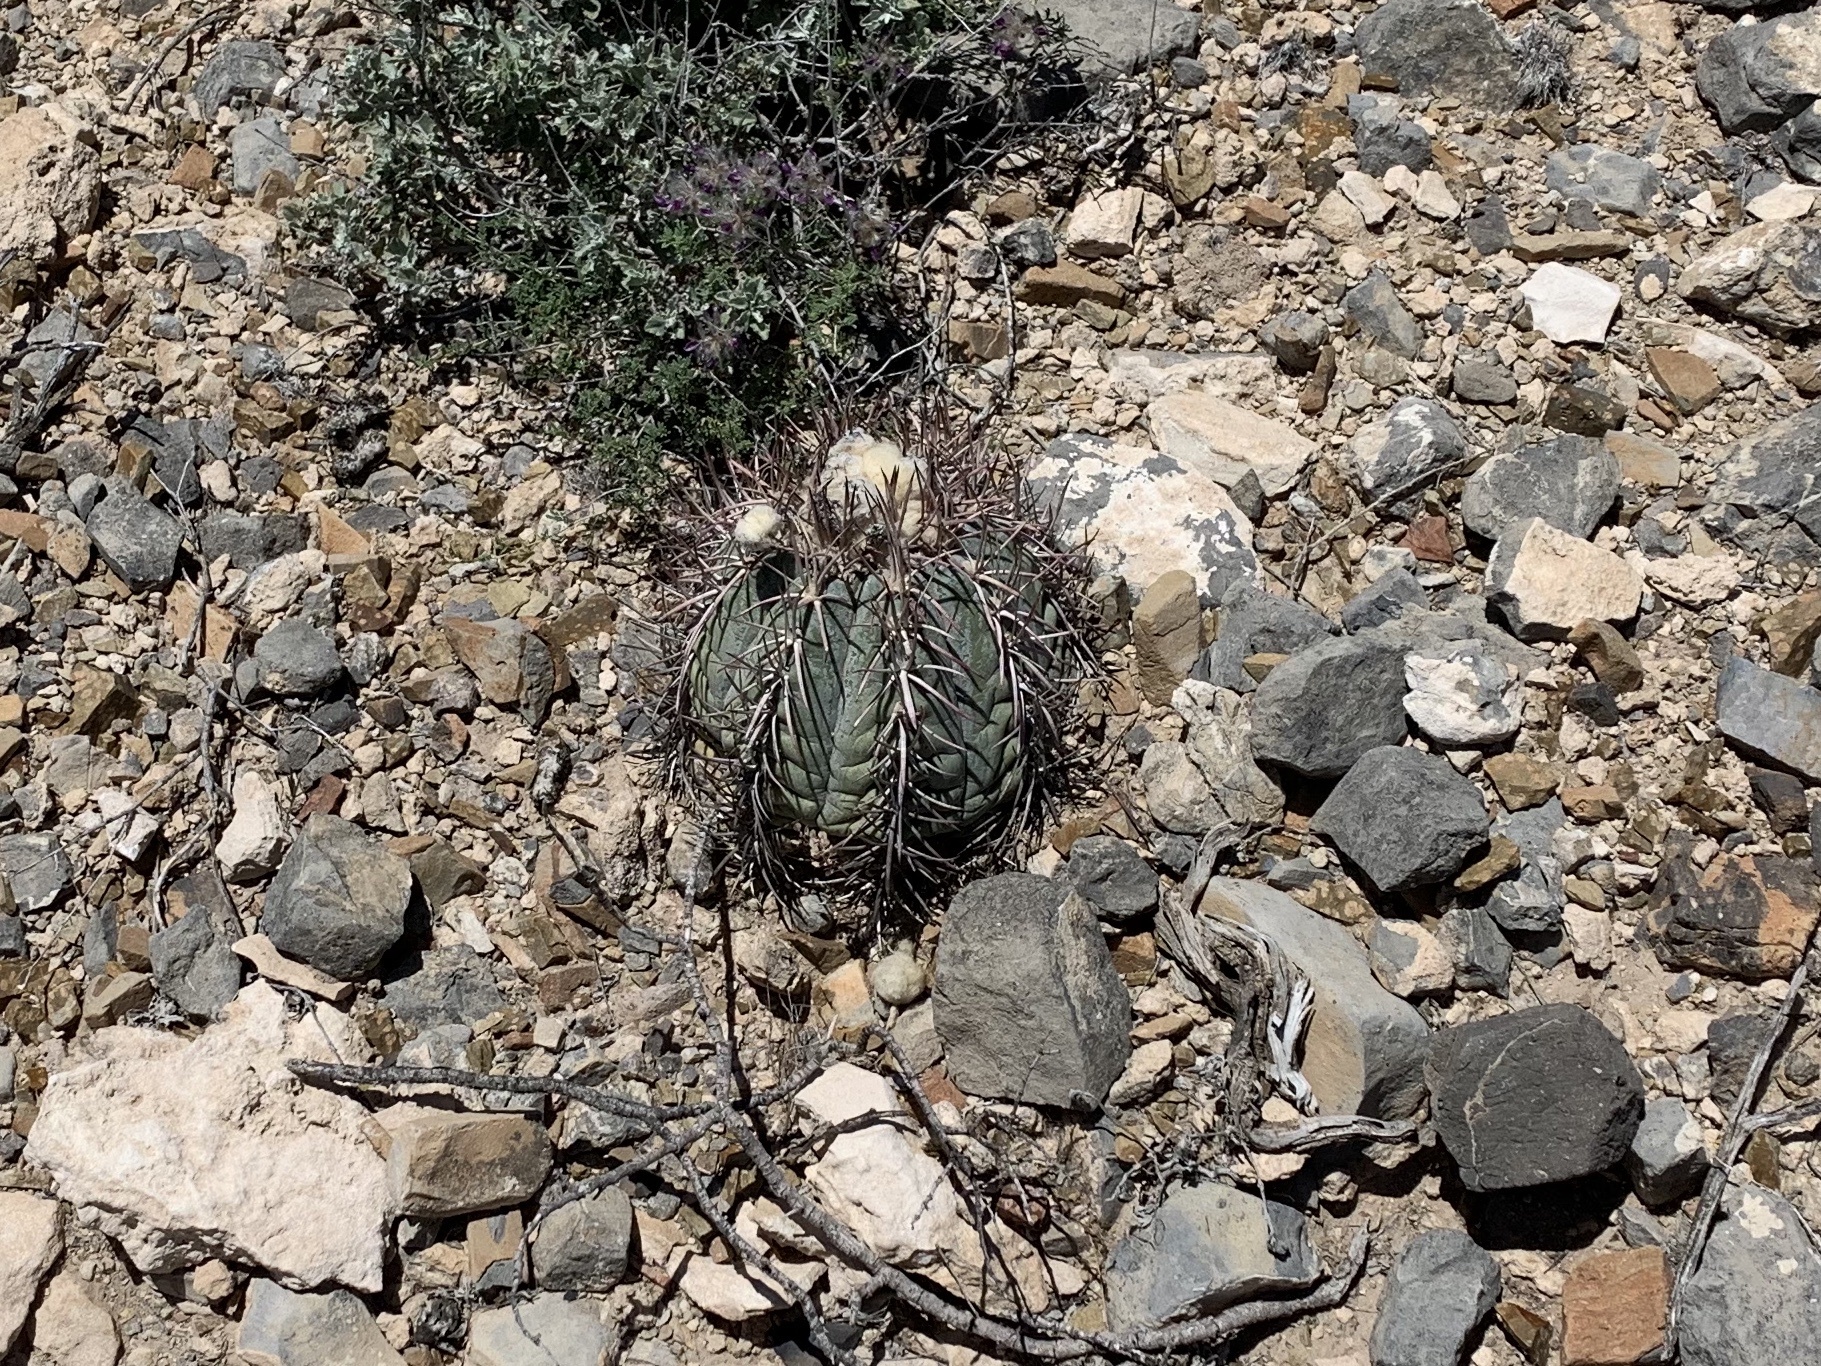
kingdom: Plantae
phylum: Tracheophyta
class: Magnoliopsida
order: Caryophyllales
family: Cactaceae
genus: Echinocactus
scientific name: Echinocactus horizonthalonius
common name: Devilshead
